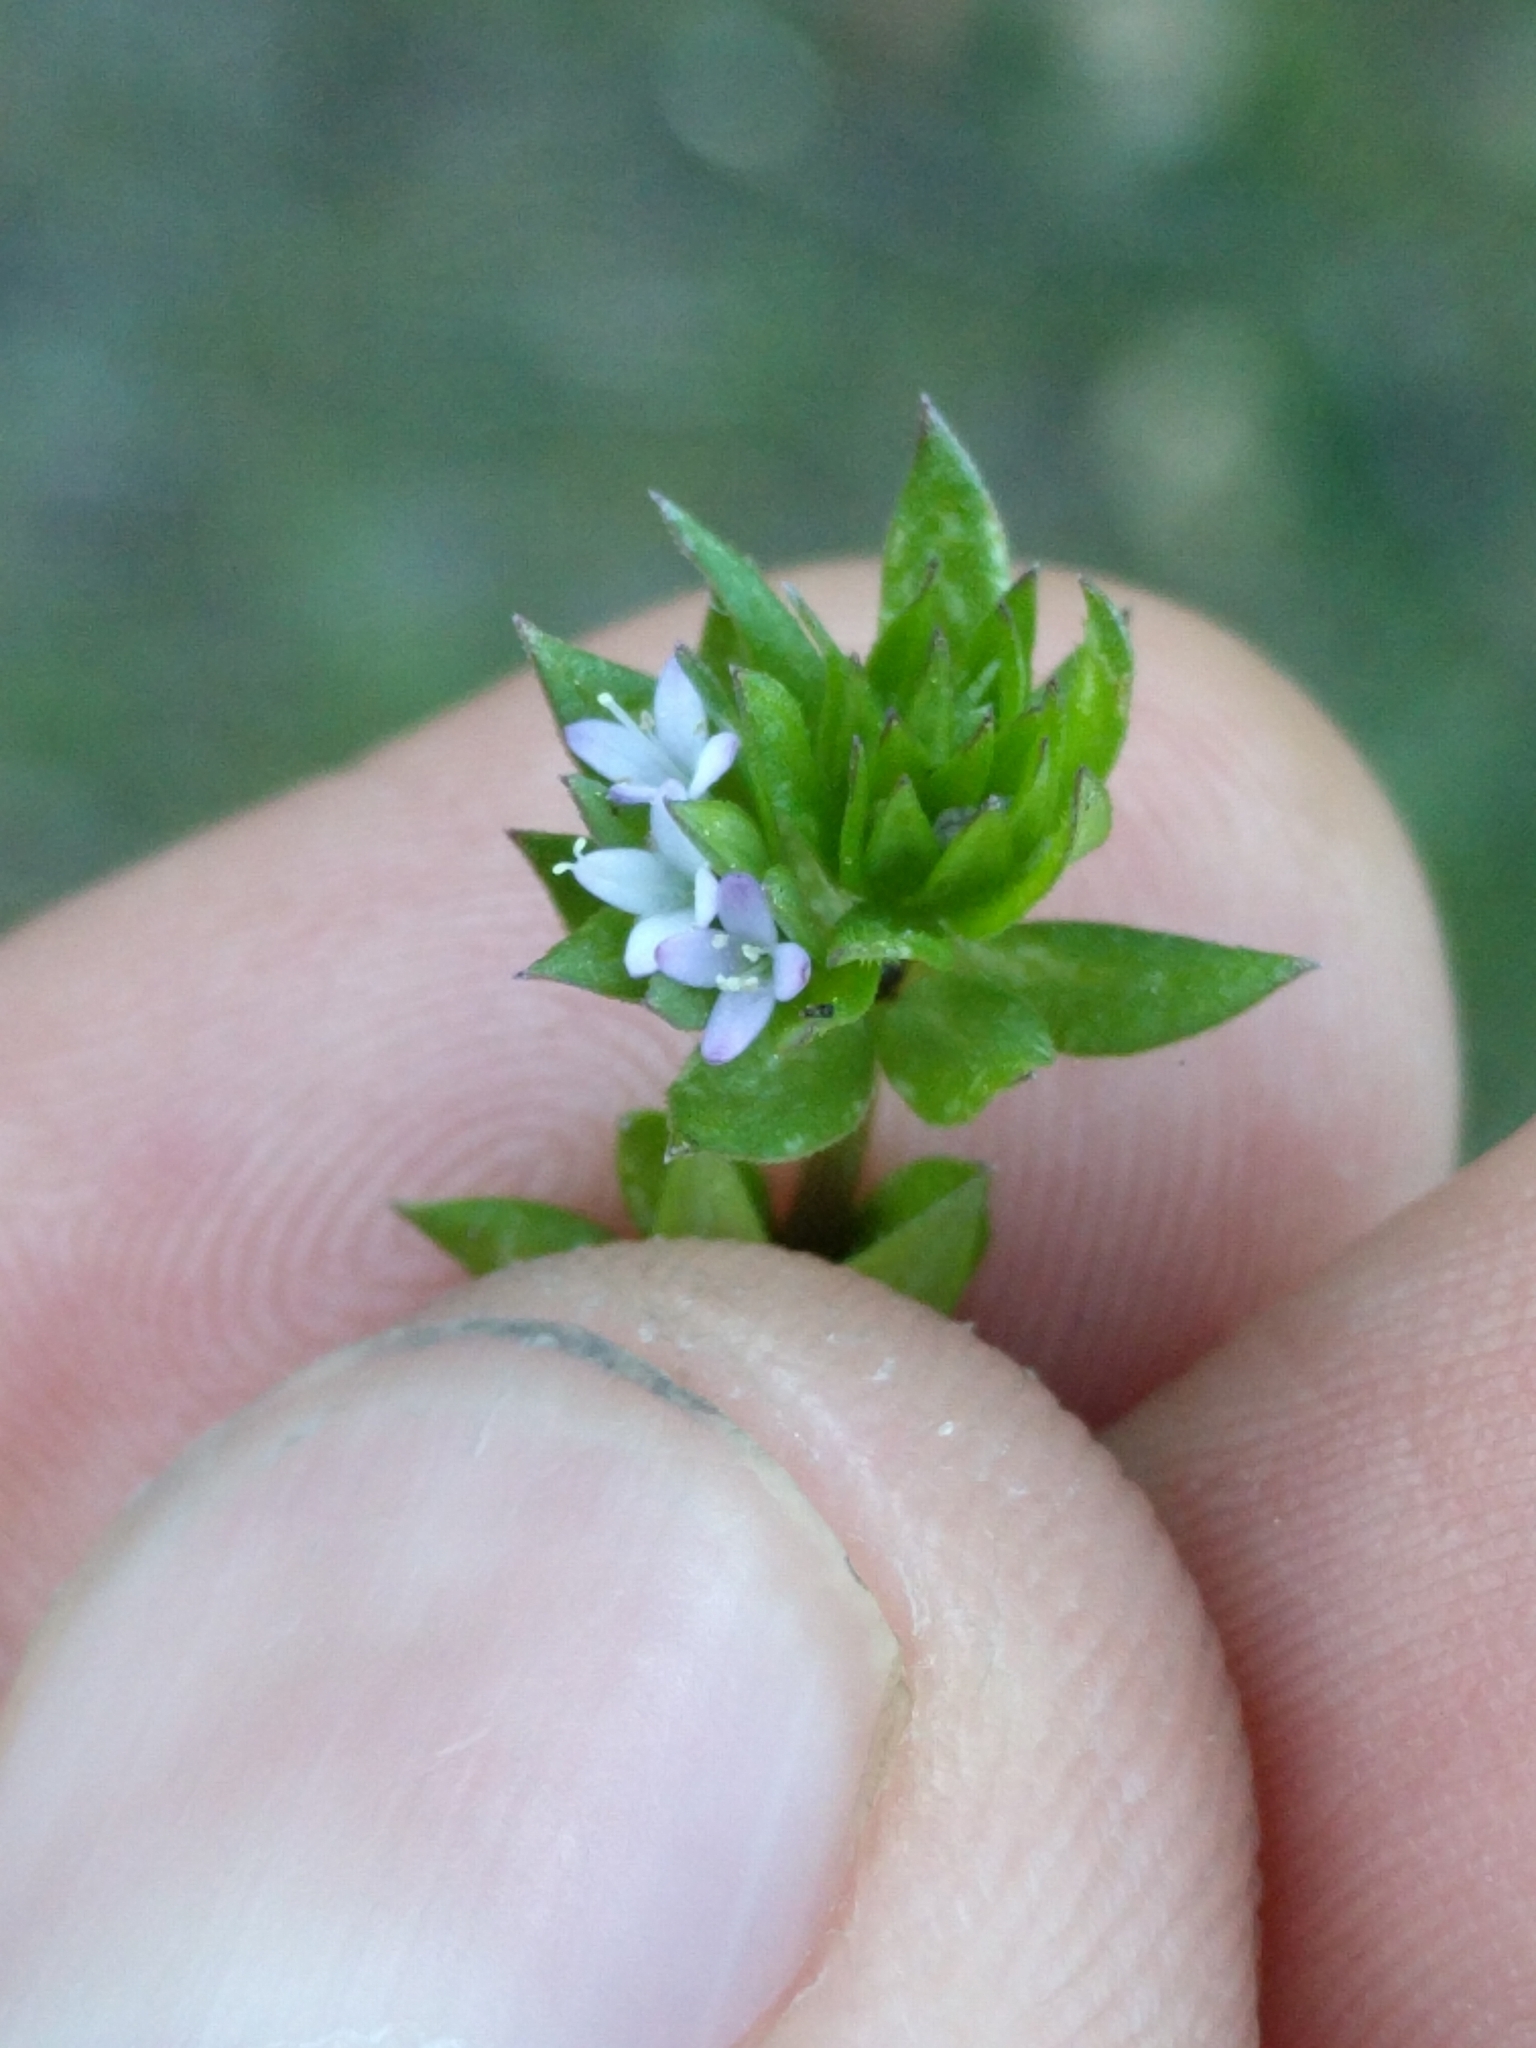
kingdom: Plantae
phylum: Tracheophyta
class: Magnoliopsida
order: Gentianales
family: Rubiaceae
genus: Sherardia
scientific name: Sherardia arvensis
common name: Field madder
